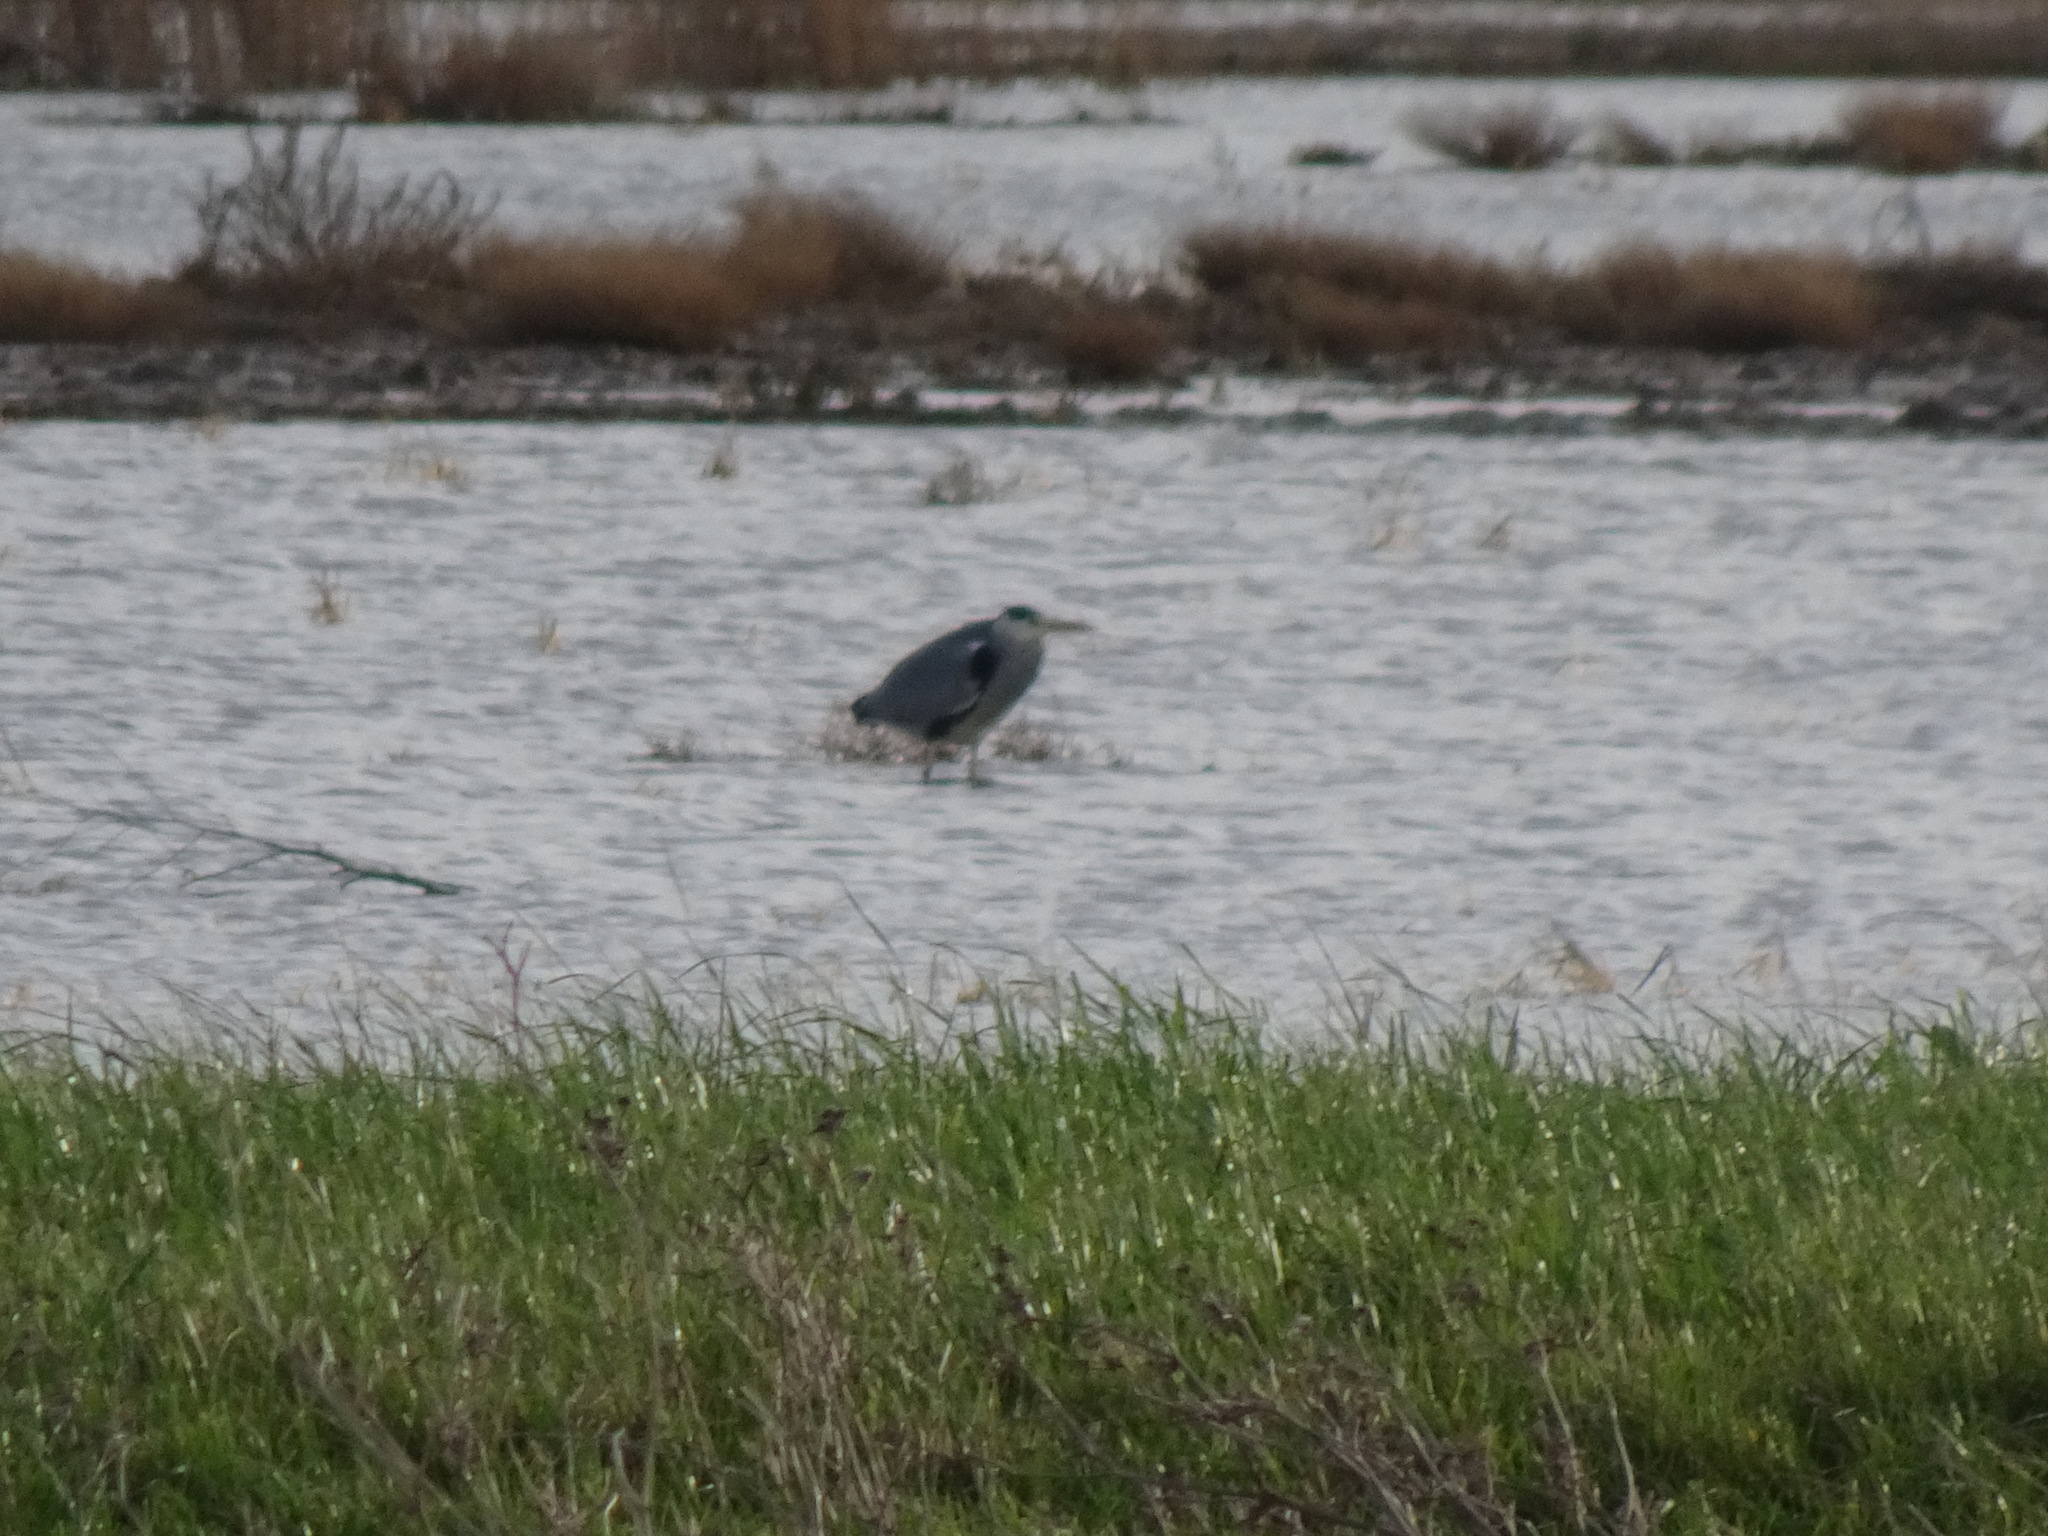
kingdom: Animalia
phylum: Chordata
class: Aves
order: Pelecaniformes
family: Ardeidae
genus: Ardea
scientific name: Ardea cinerea
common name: Grey heron
